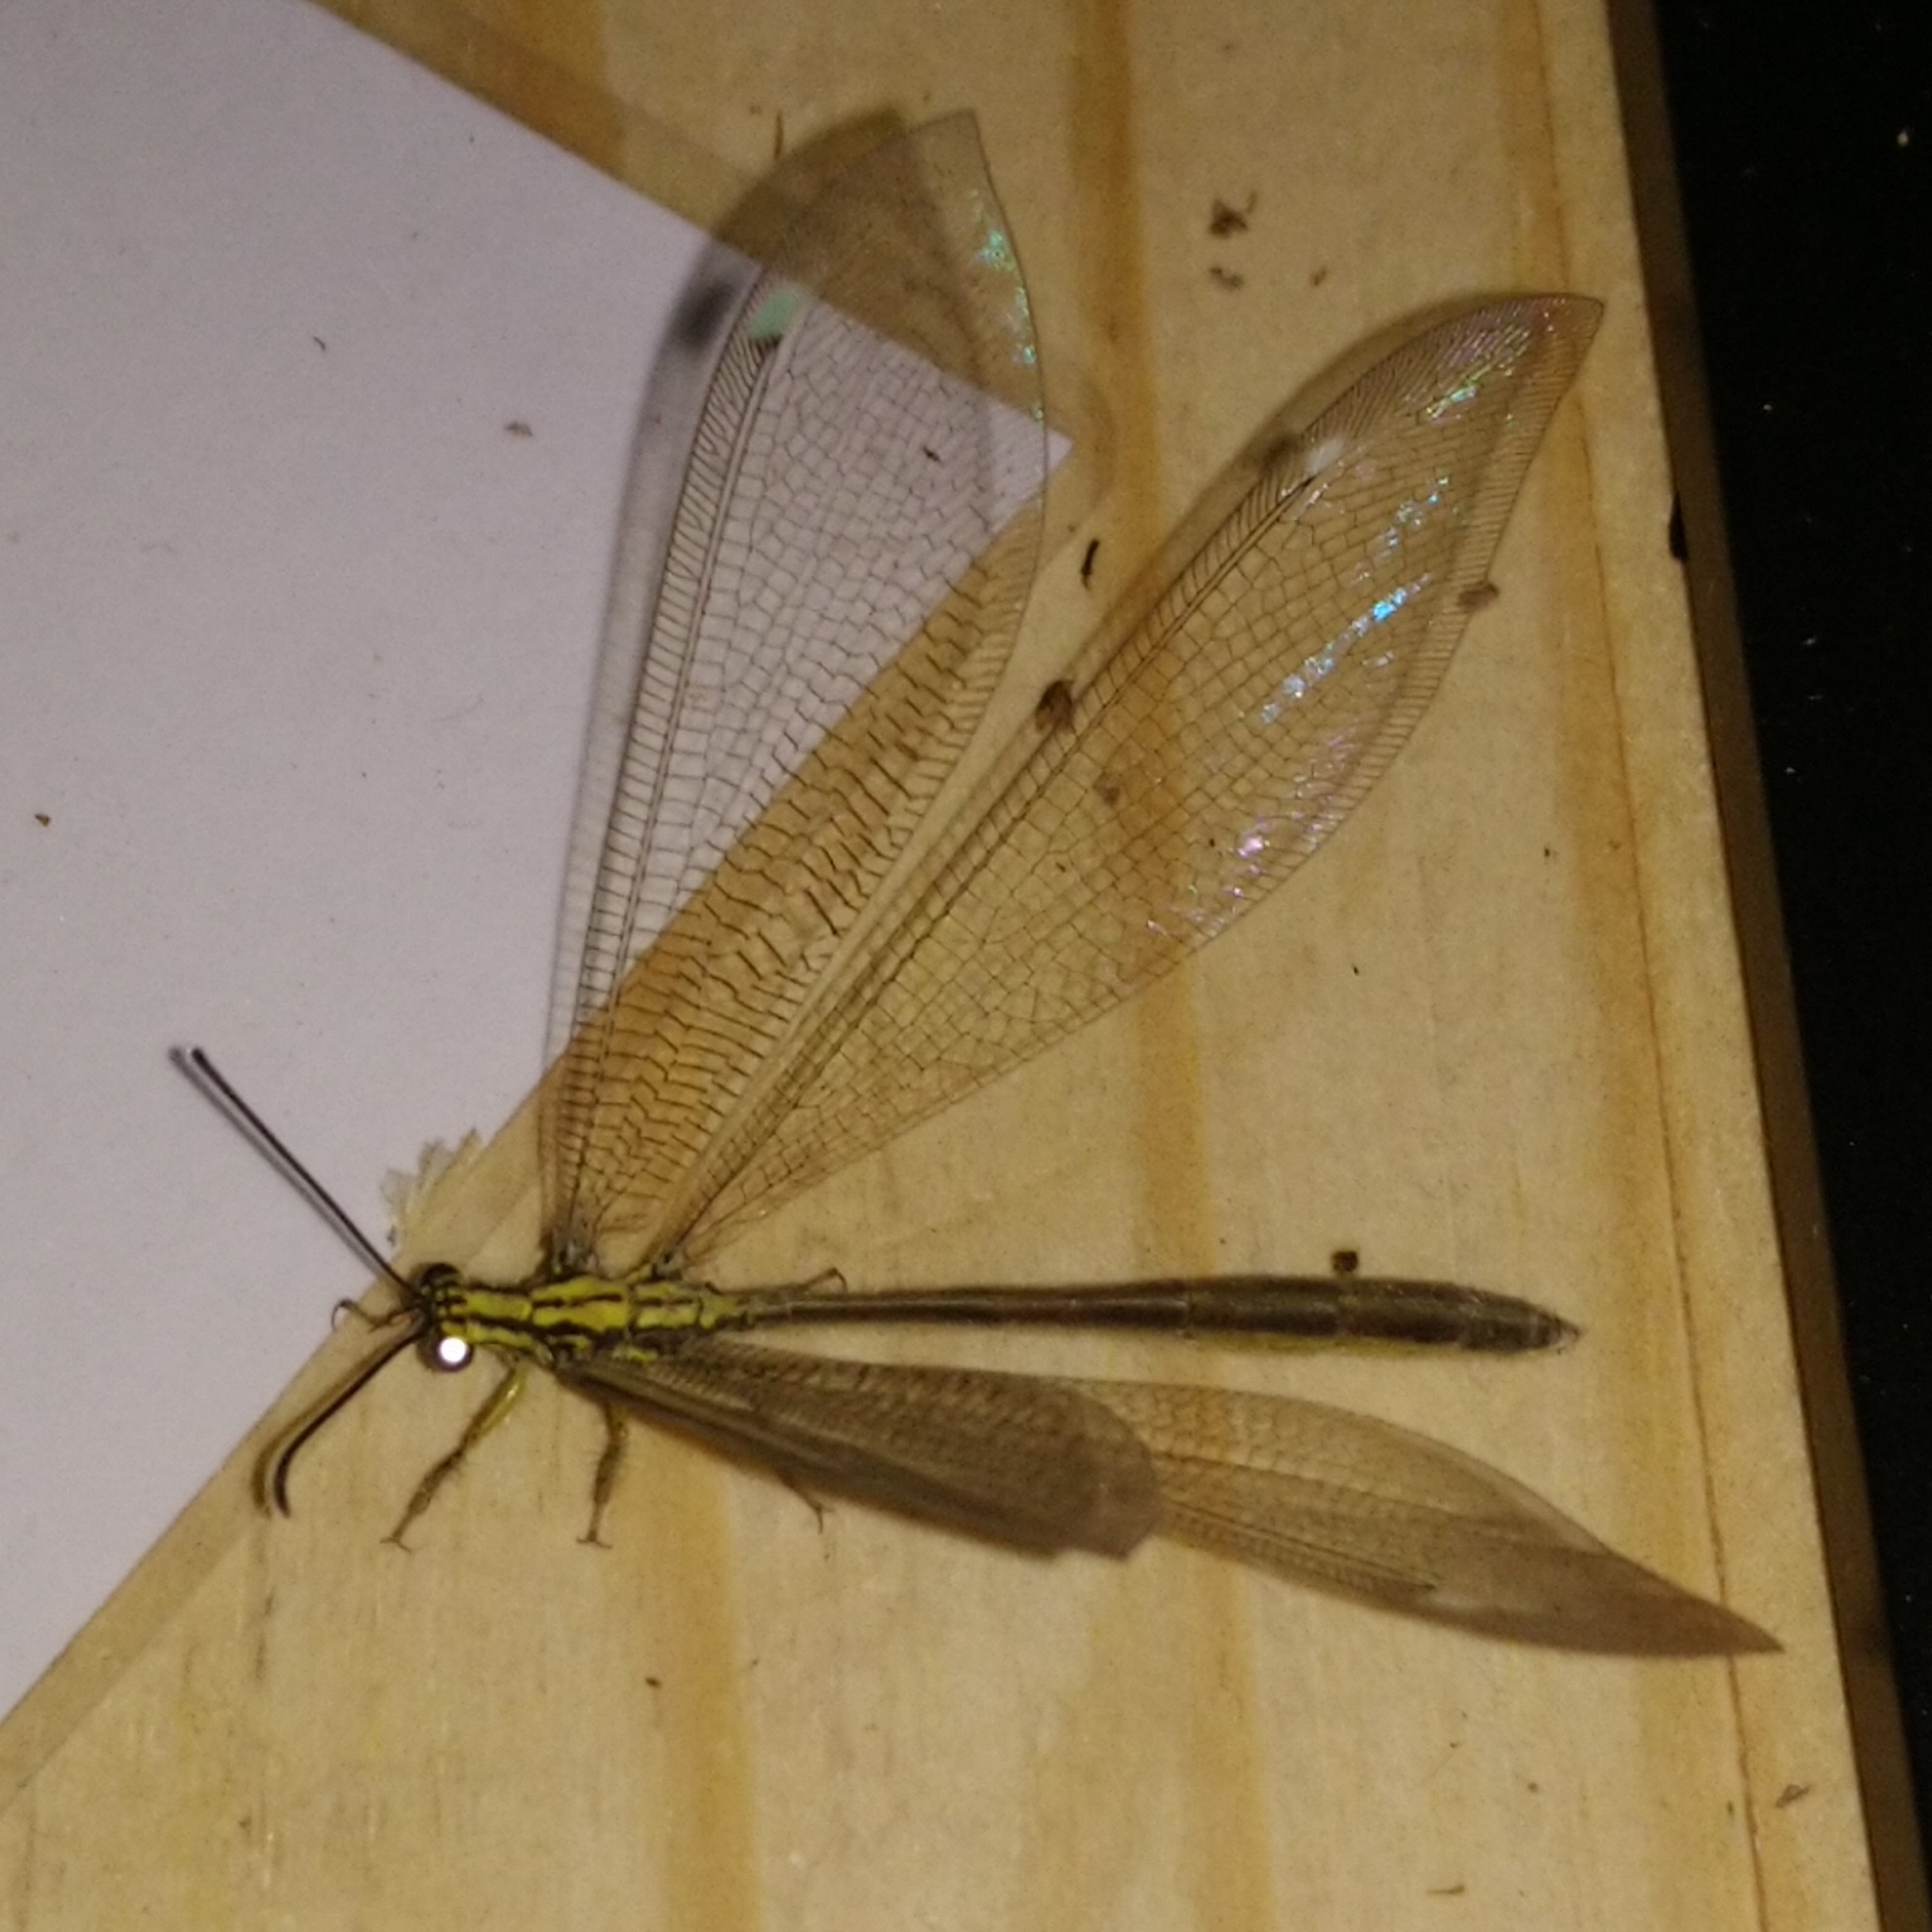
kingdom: Animalia
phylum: Arthropoda
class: Insecta
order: Neuroptera
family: Myrmeleontidae
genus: Banyutus
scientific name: Banyutus lethalis
